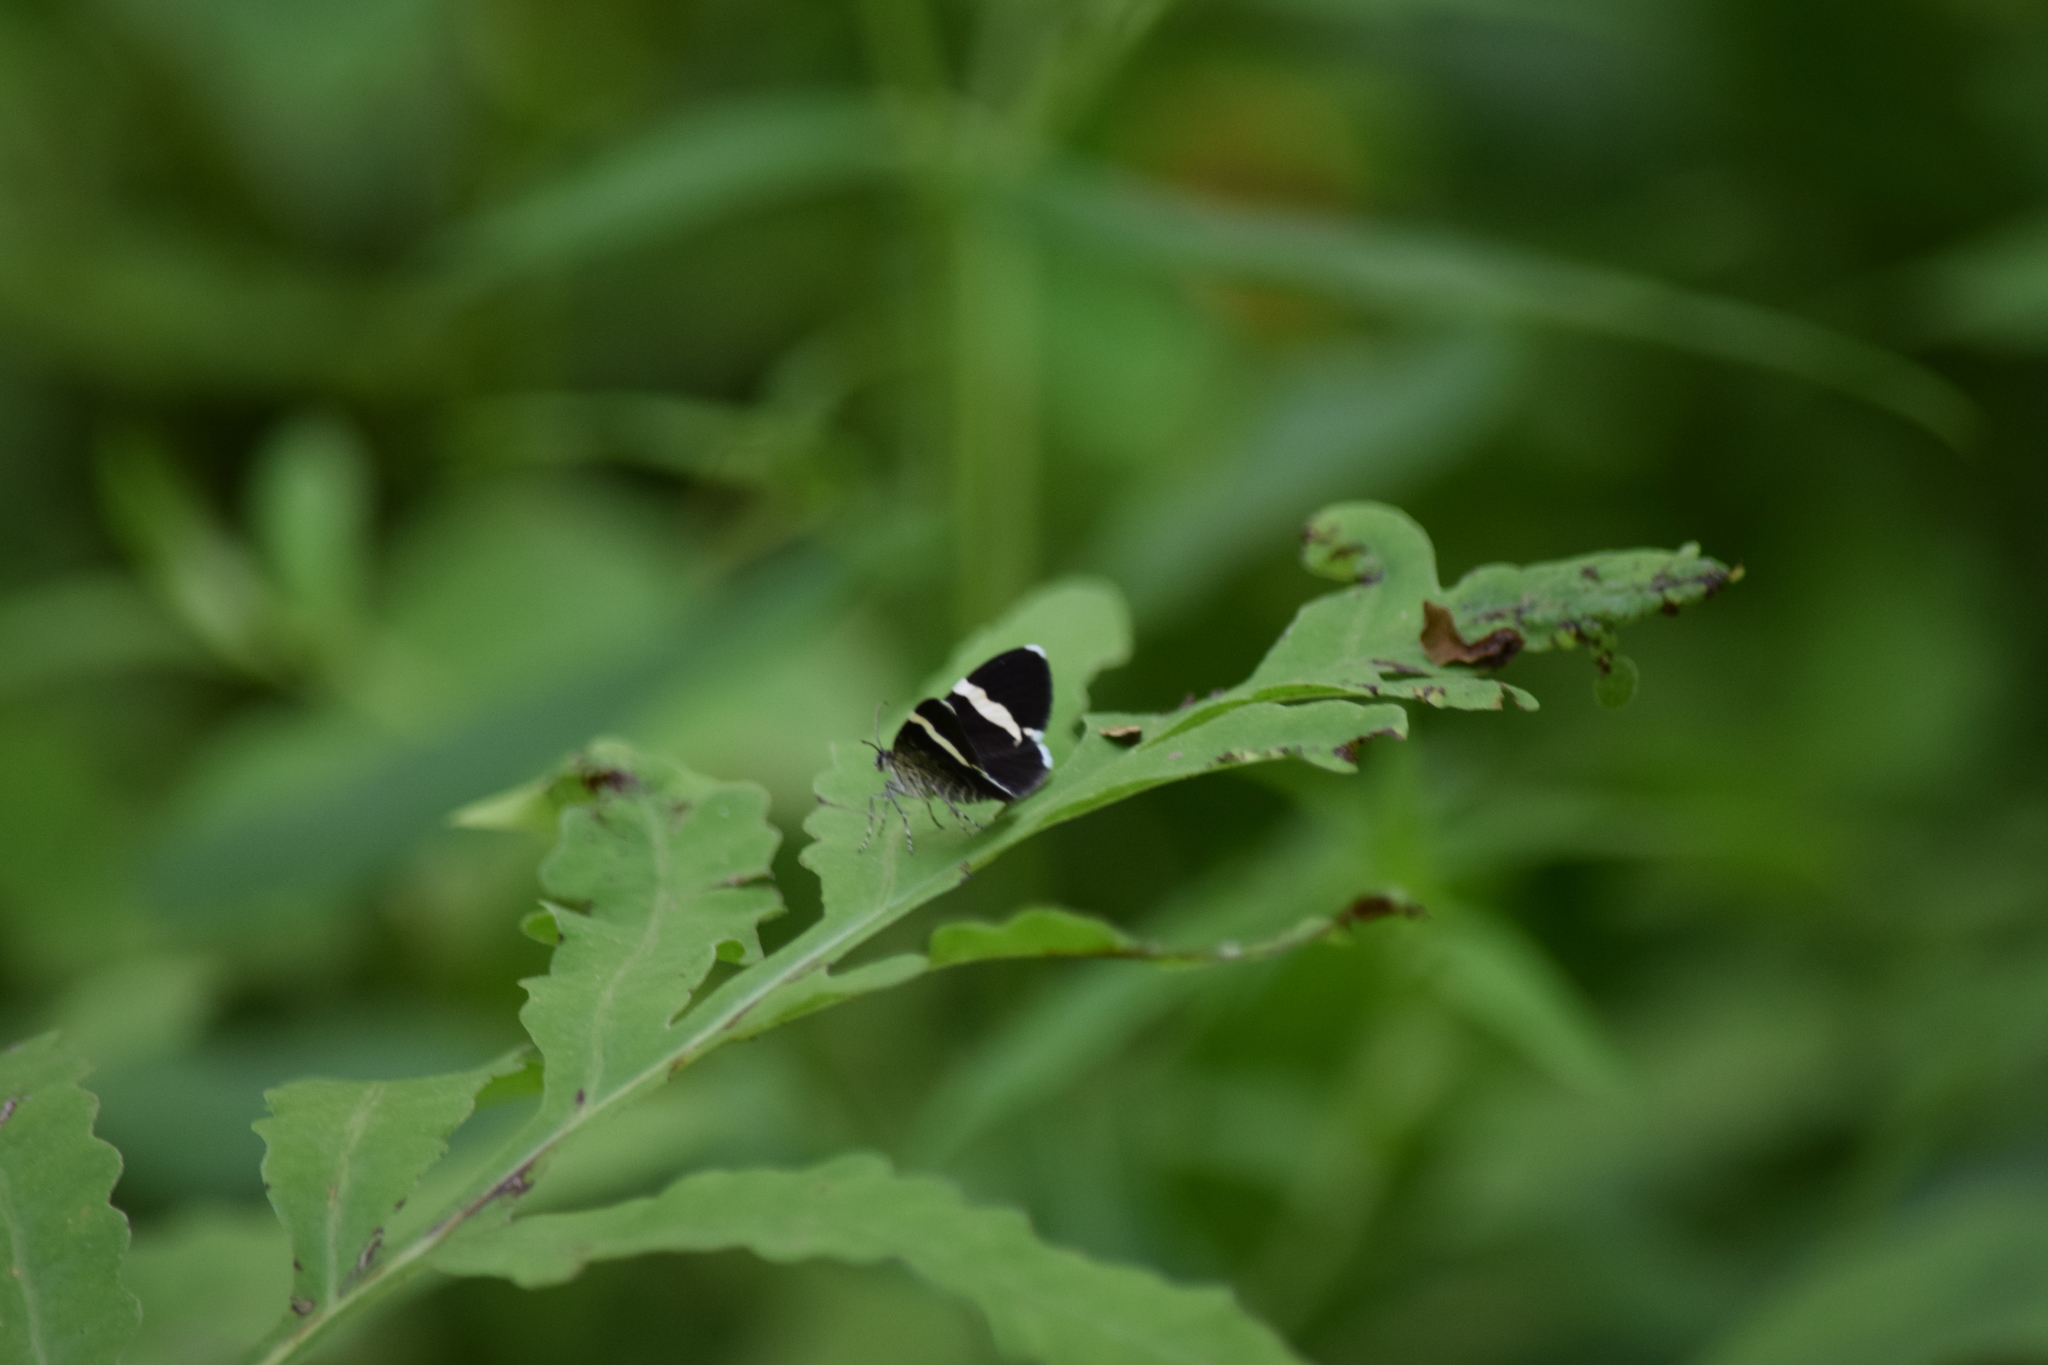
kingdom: Animalia
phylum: Arthropoda
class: Insecta
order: Lepidoptera
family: Geometridae
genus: Trichodezia
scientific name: Trichodezia albovittata
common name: White striped black
